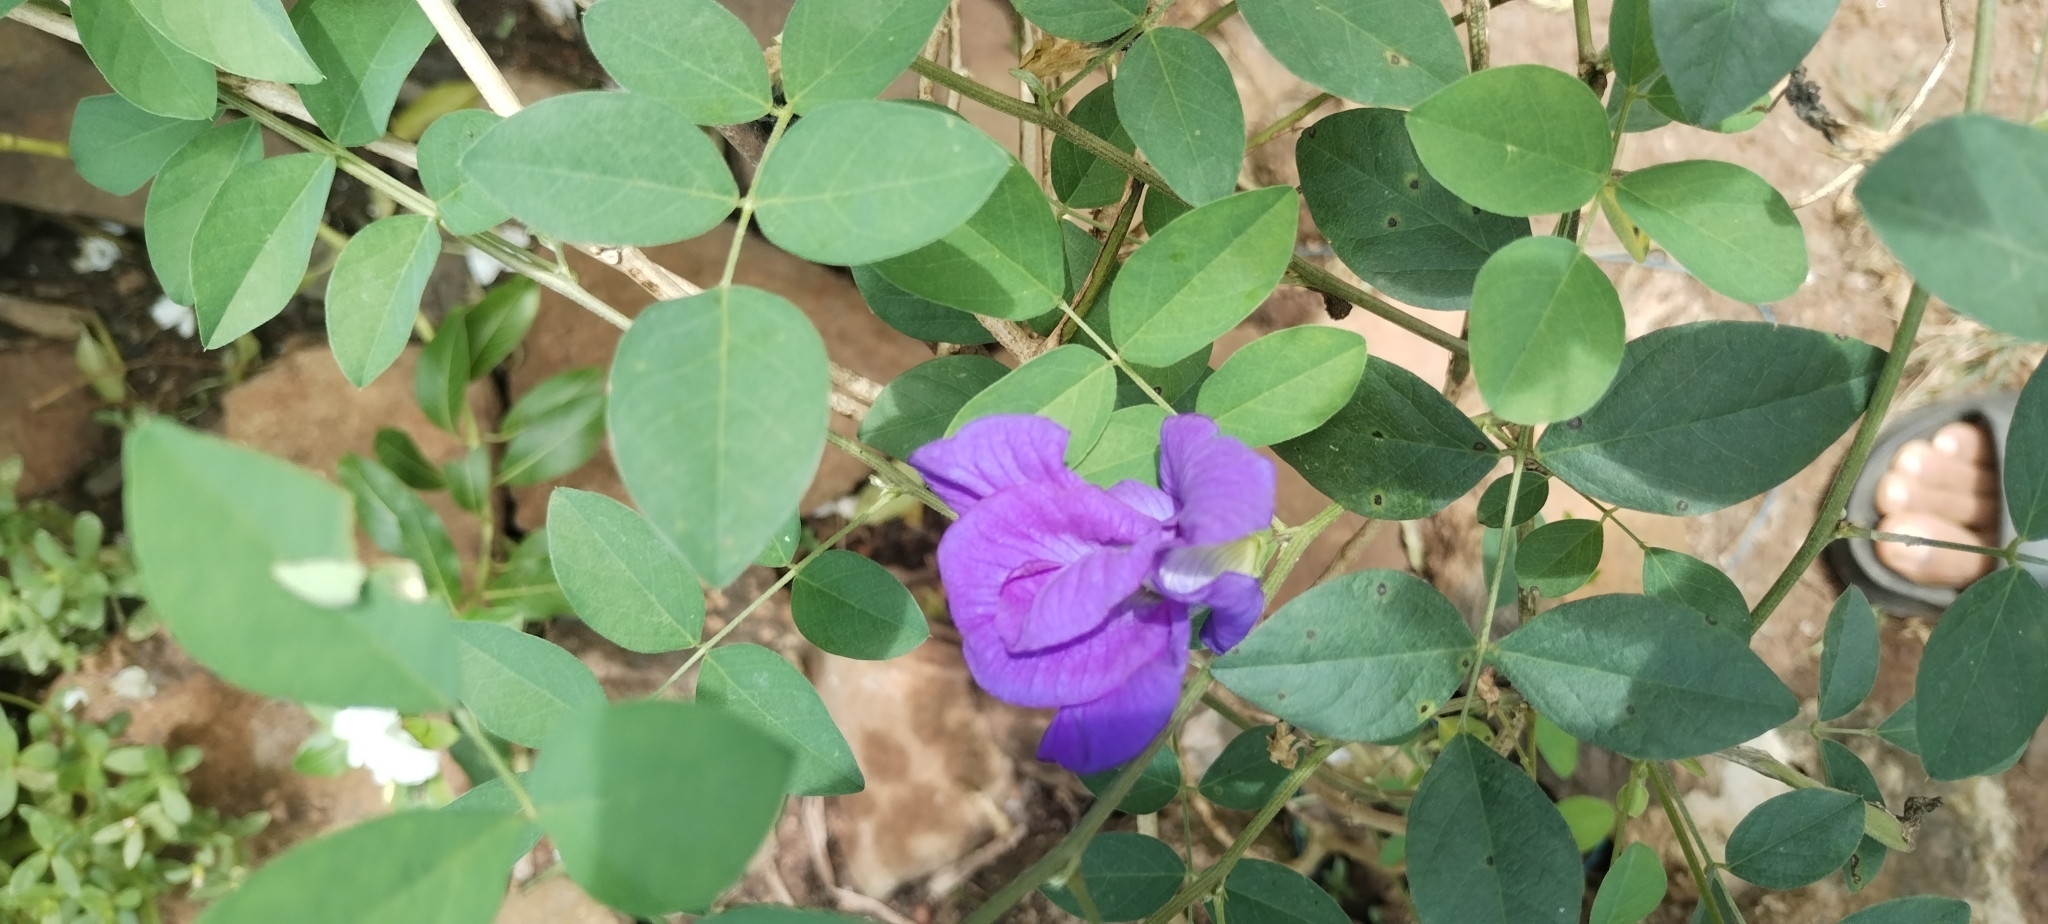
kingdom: Plantae
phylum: Tracheophyta
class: Magnoliopsida
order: Fabales
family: Fabaceae
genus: Clitoria
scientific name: Clitoria ternatea
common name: Asian pigeonwings
